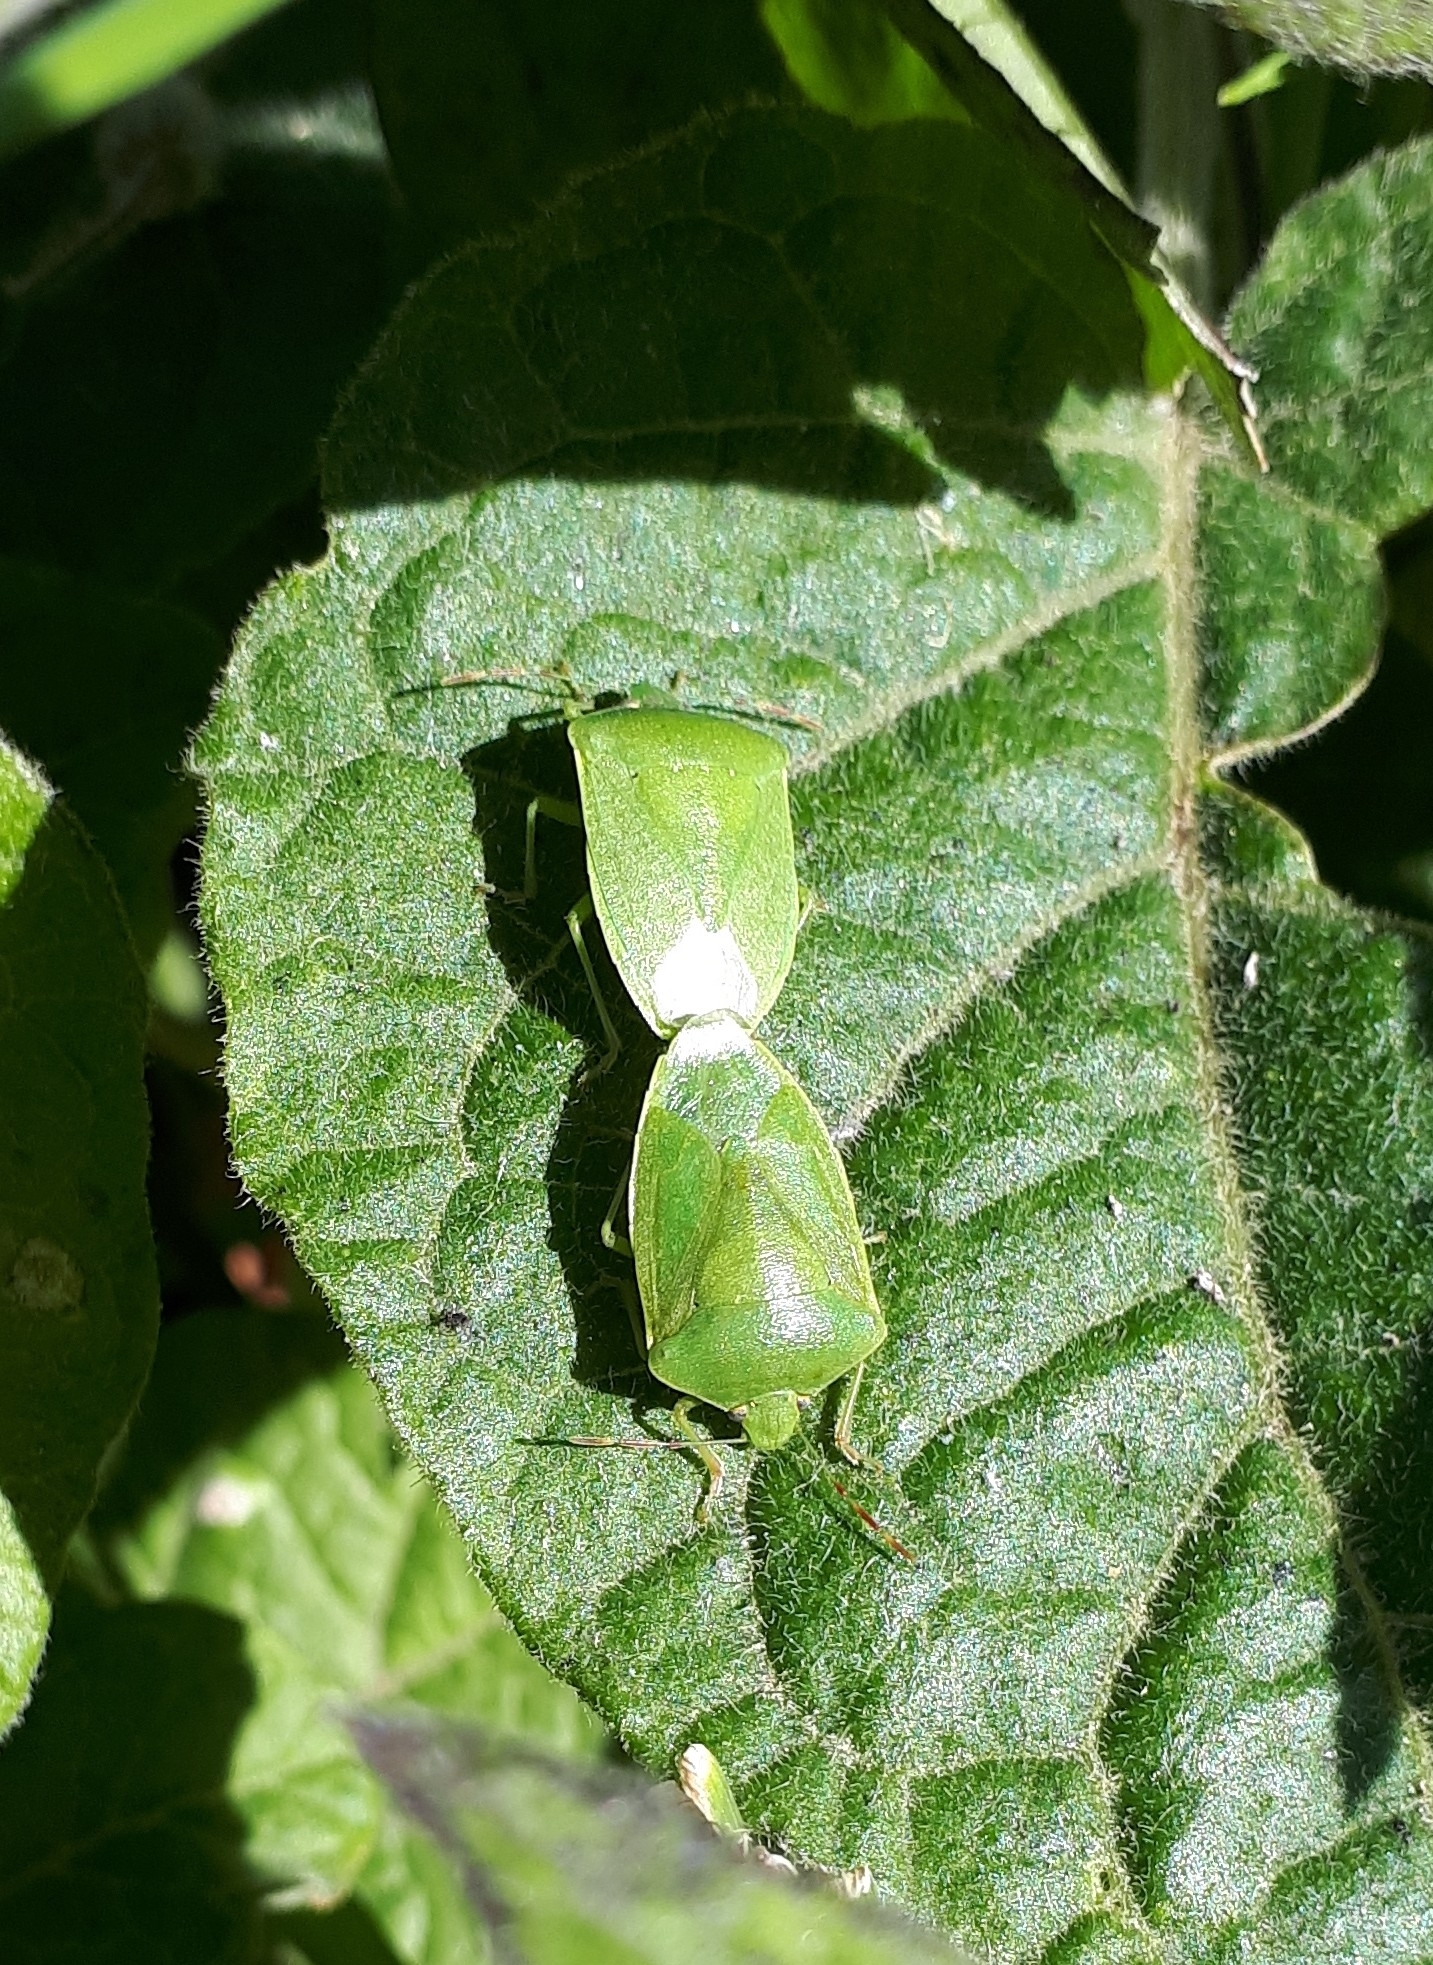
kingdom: Animalia
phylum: Arthropoda
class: Insecta
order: Hemiptera
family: Pentatomidae
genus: Nezara
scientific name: Nezara viridula
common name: Southern green stink bug
